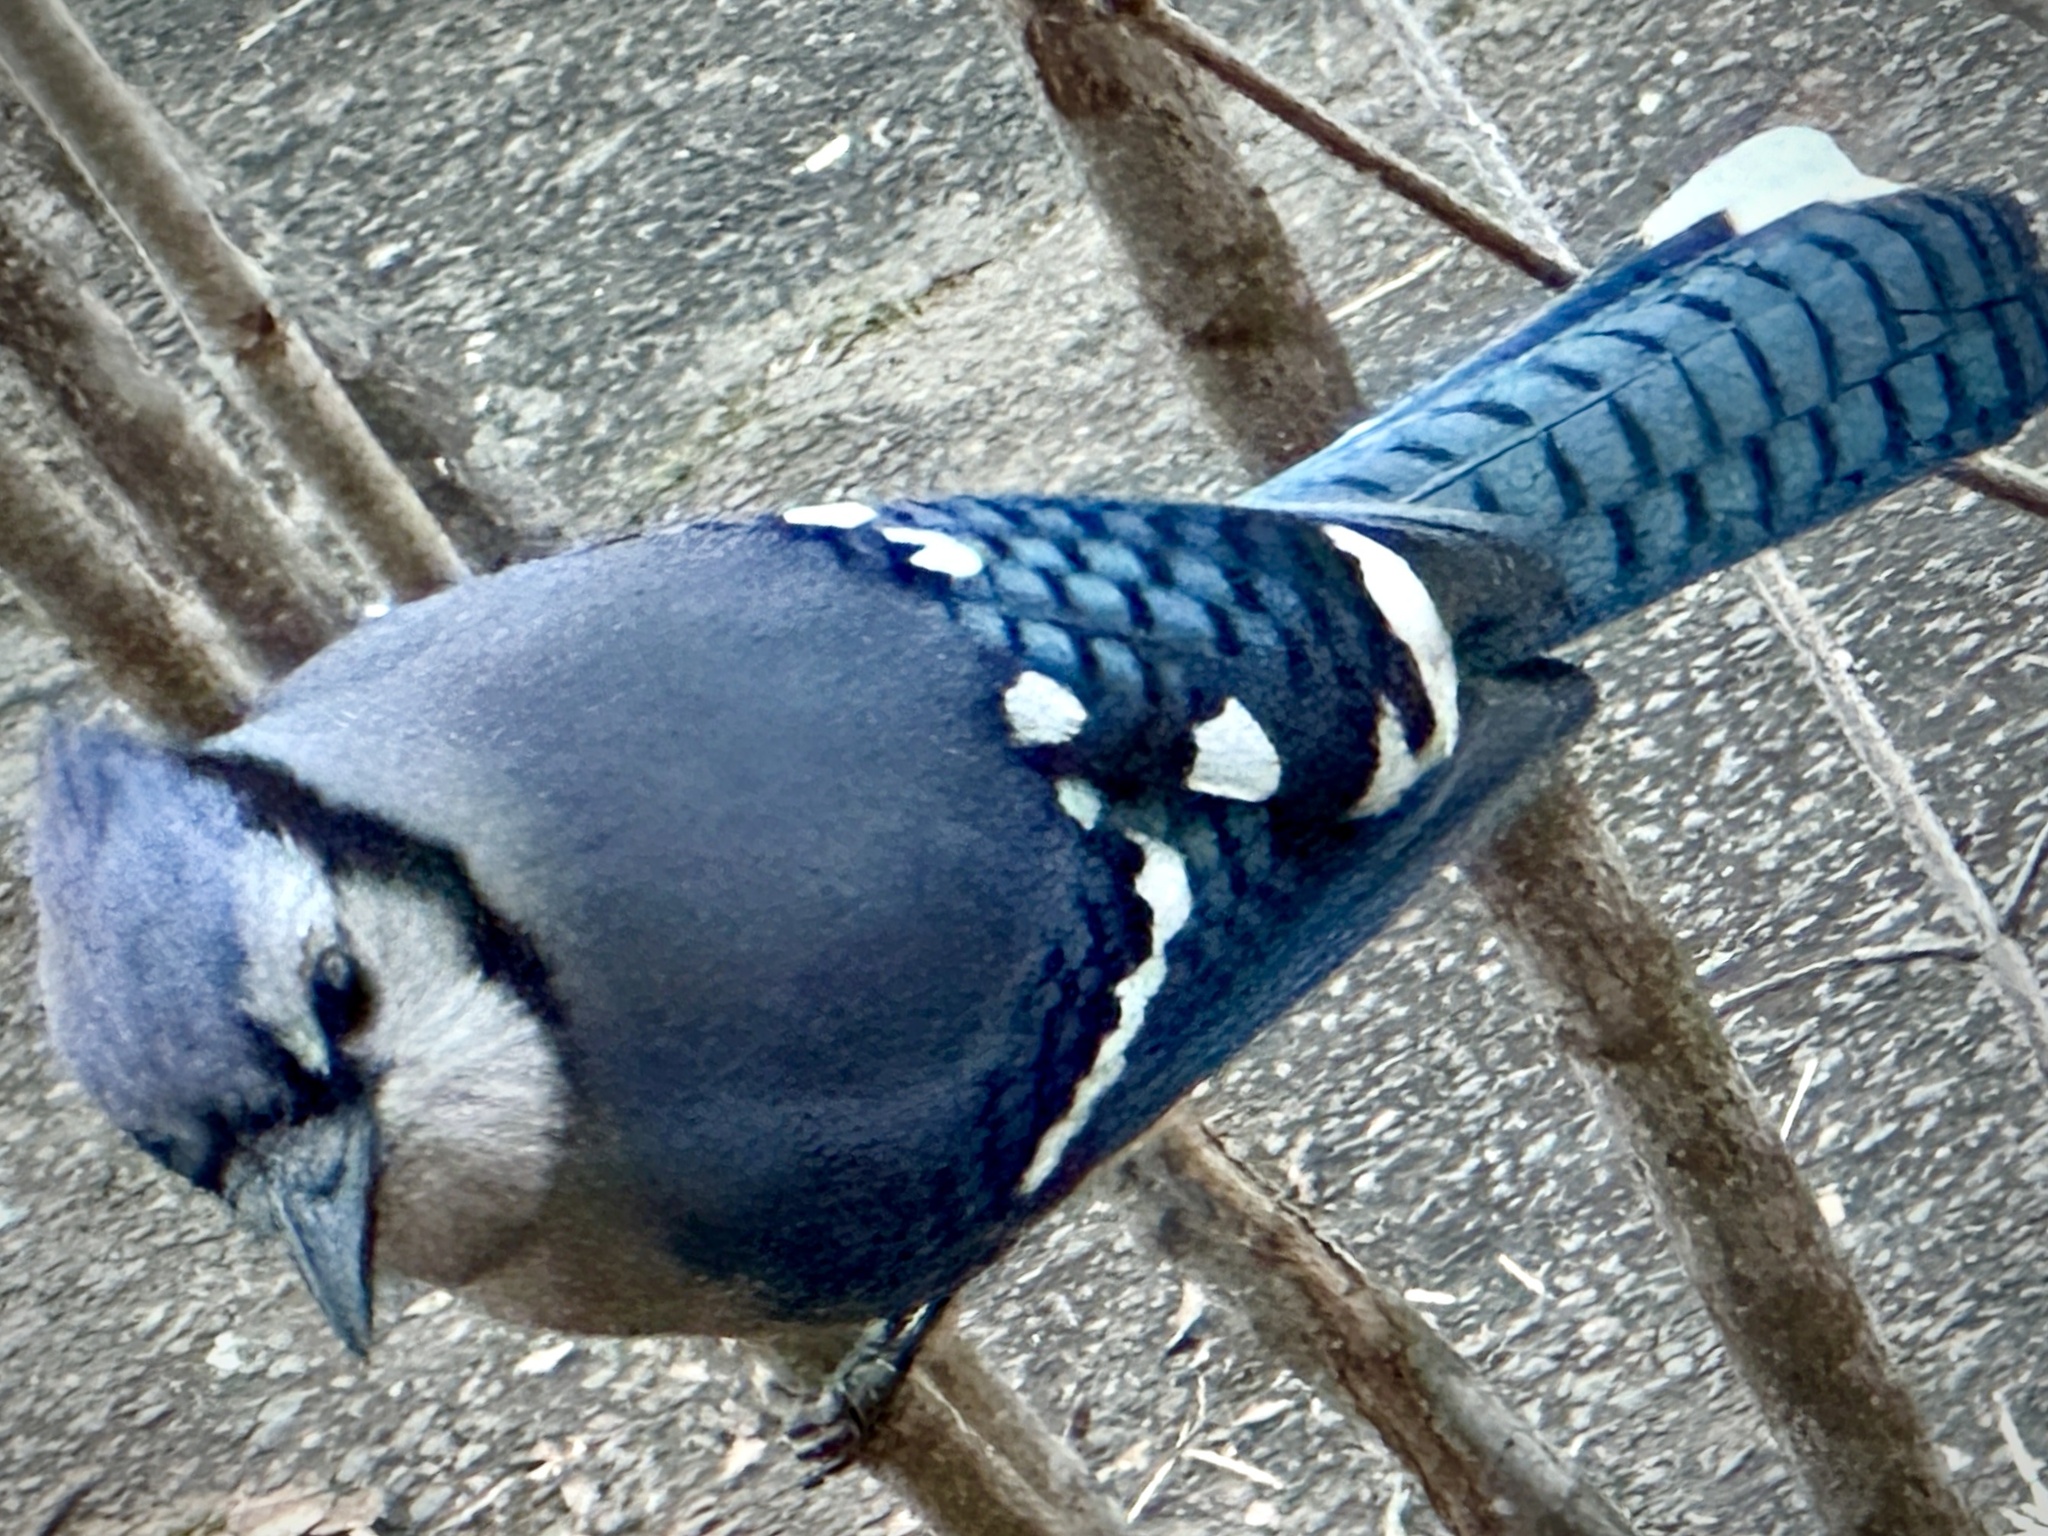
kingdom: Animalia
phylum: Chordata
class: Aves
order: Passeriformes
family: Corvidae
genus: Cyanocitta
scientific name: Cyanocitta cristata
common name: Blue jay
